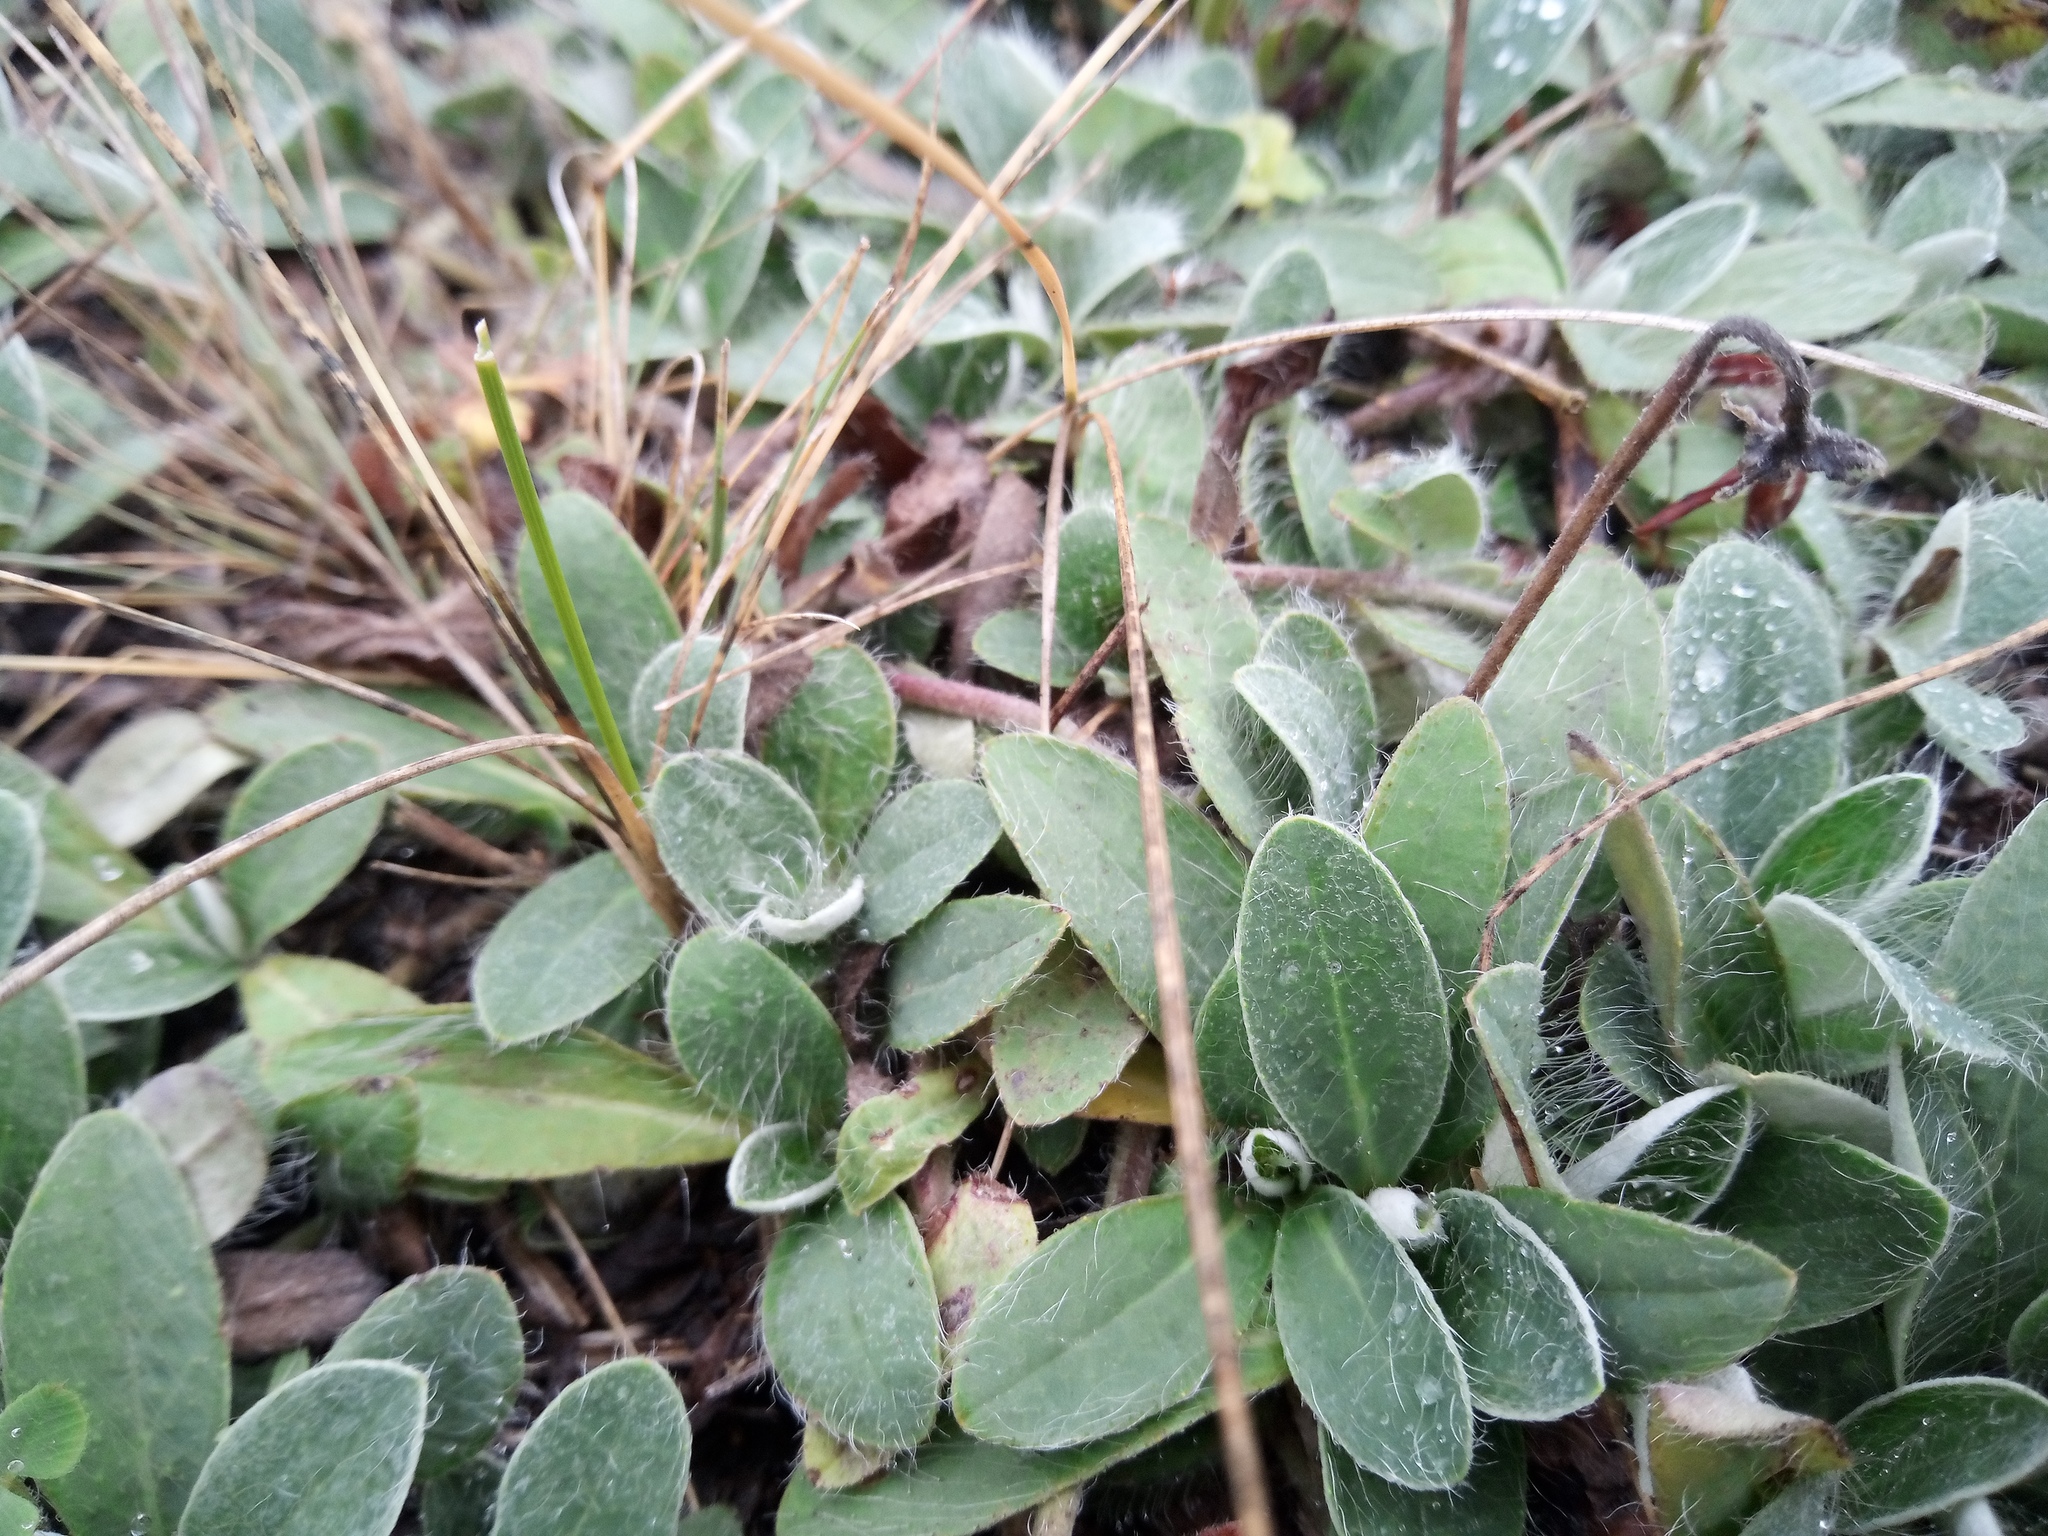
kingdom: Plantae
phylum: Tracheophyta
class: Magnoliopsida
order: Asterales
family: Asteraceae
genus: Pilosella
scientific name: Pilosella officinarum
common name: Mouse-ear hawkweed
